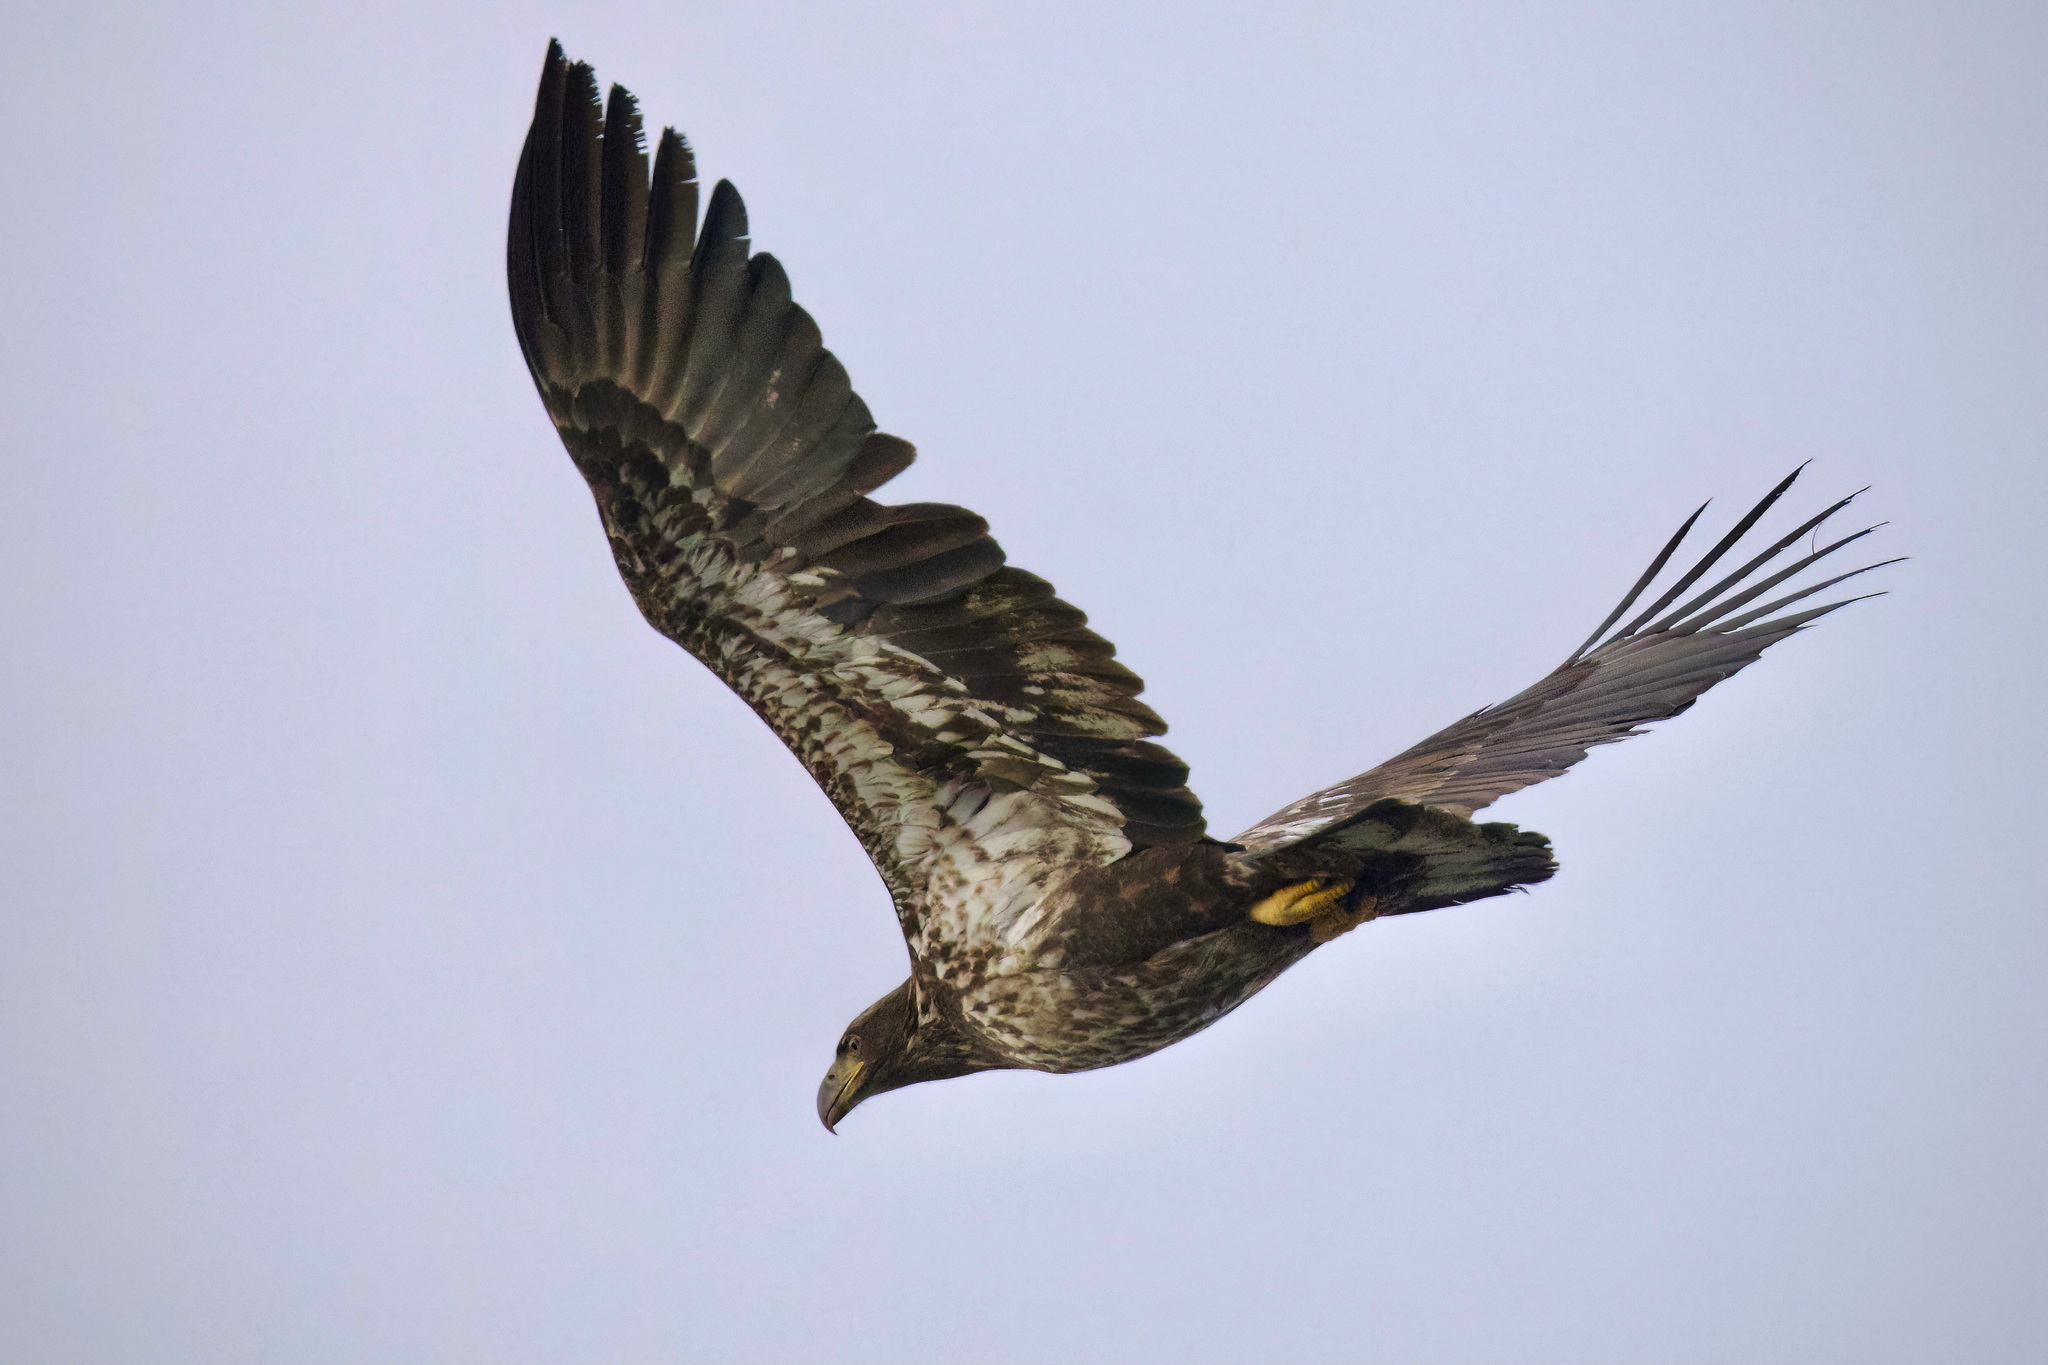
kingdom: Animalia
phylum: Chordata
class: Aves
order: Accipitriformes
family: Accipitridae
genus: Haliaeetus
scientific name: Haliaeetus leucocephalus
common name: Bald eagle
